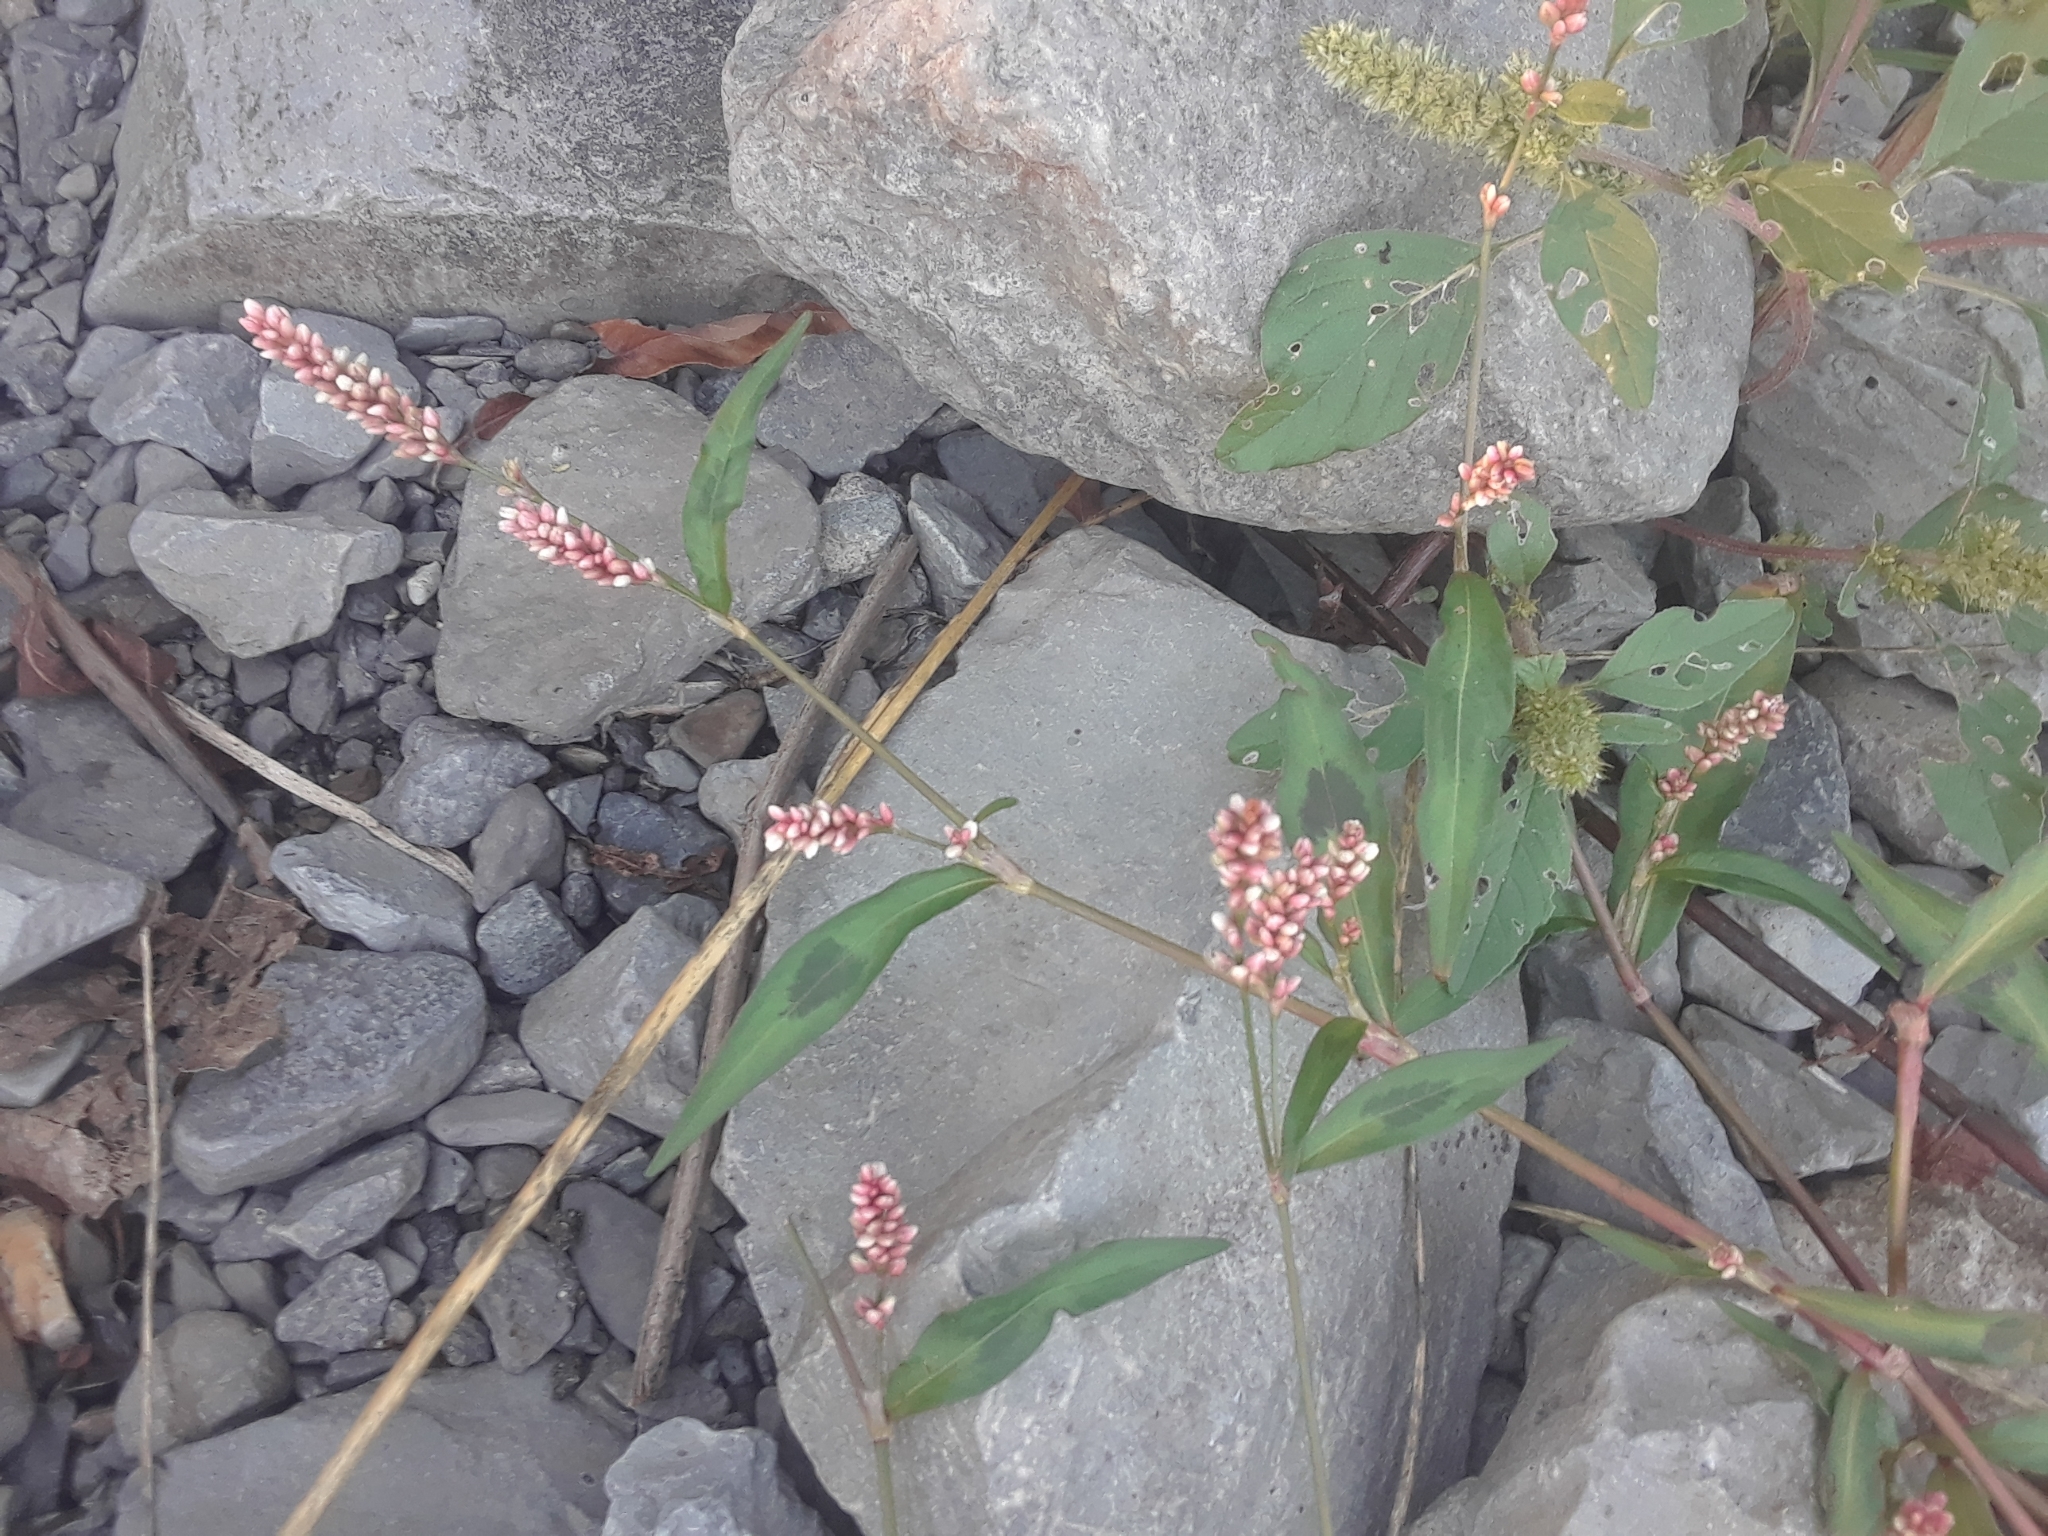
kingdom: Plantae
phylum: Tracheophyta
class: Magnoliopsida
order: Caryophyllales
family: Polygonaceae
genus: Persicaria
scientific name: Persicaria maculosa
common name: Redshank
